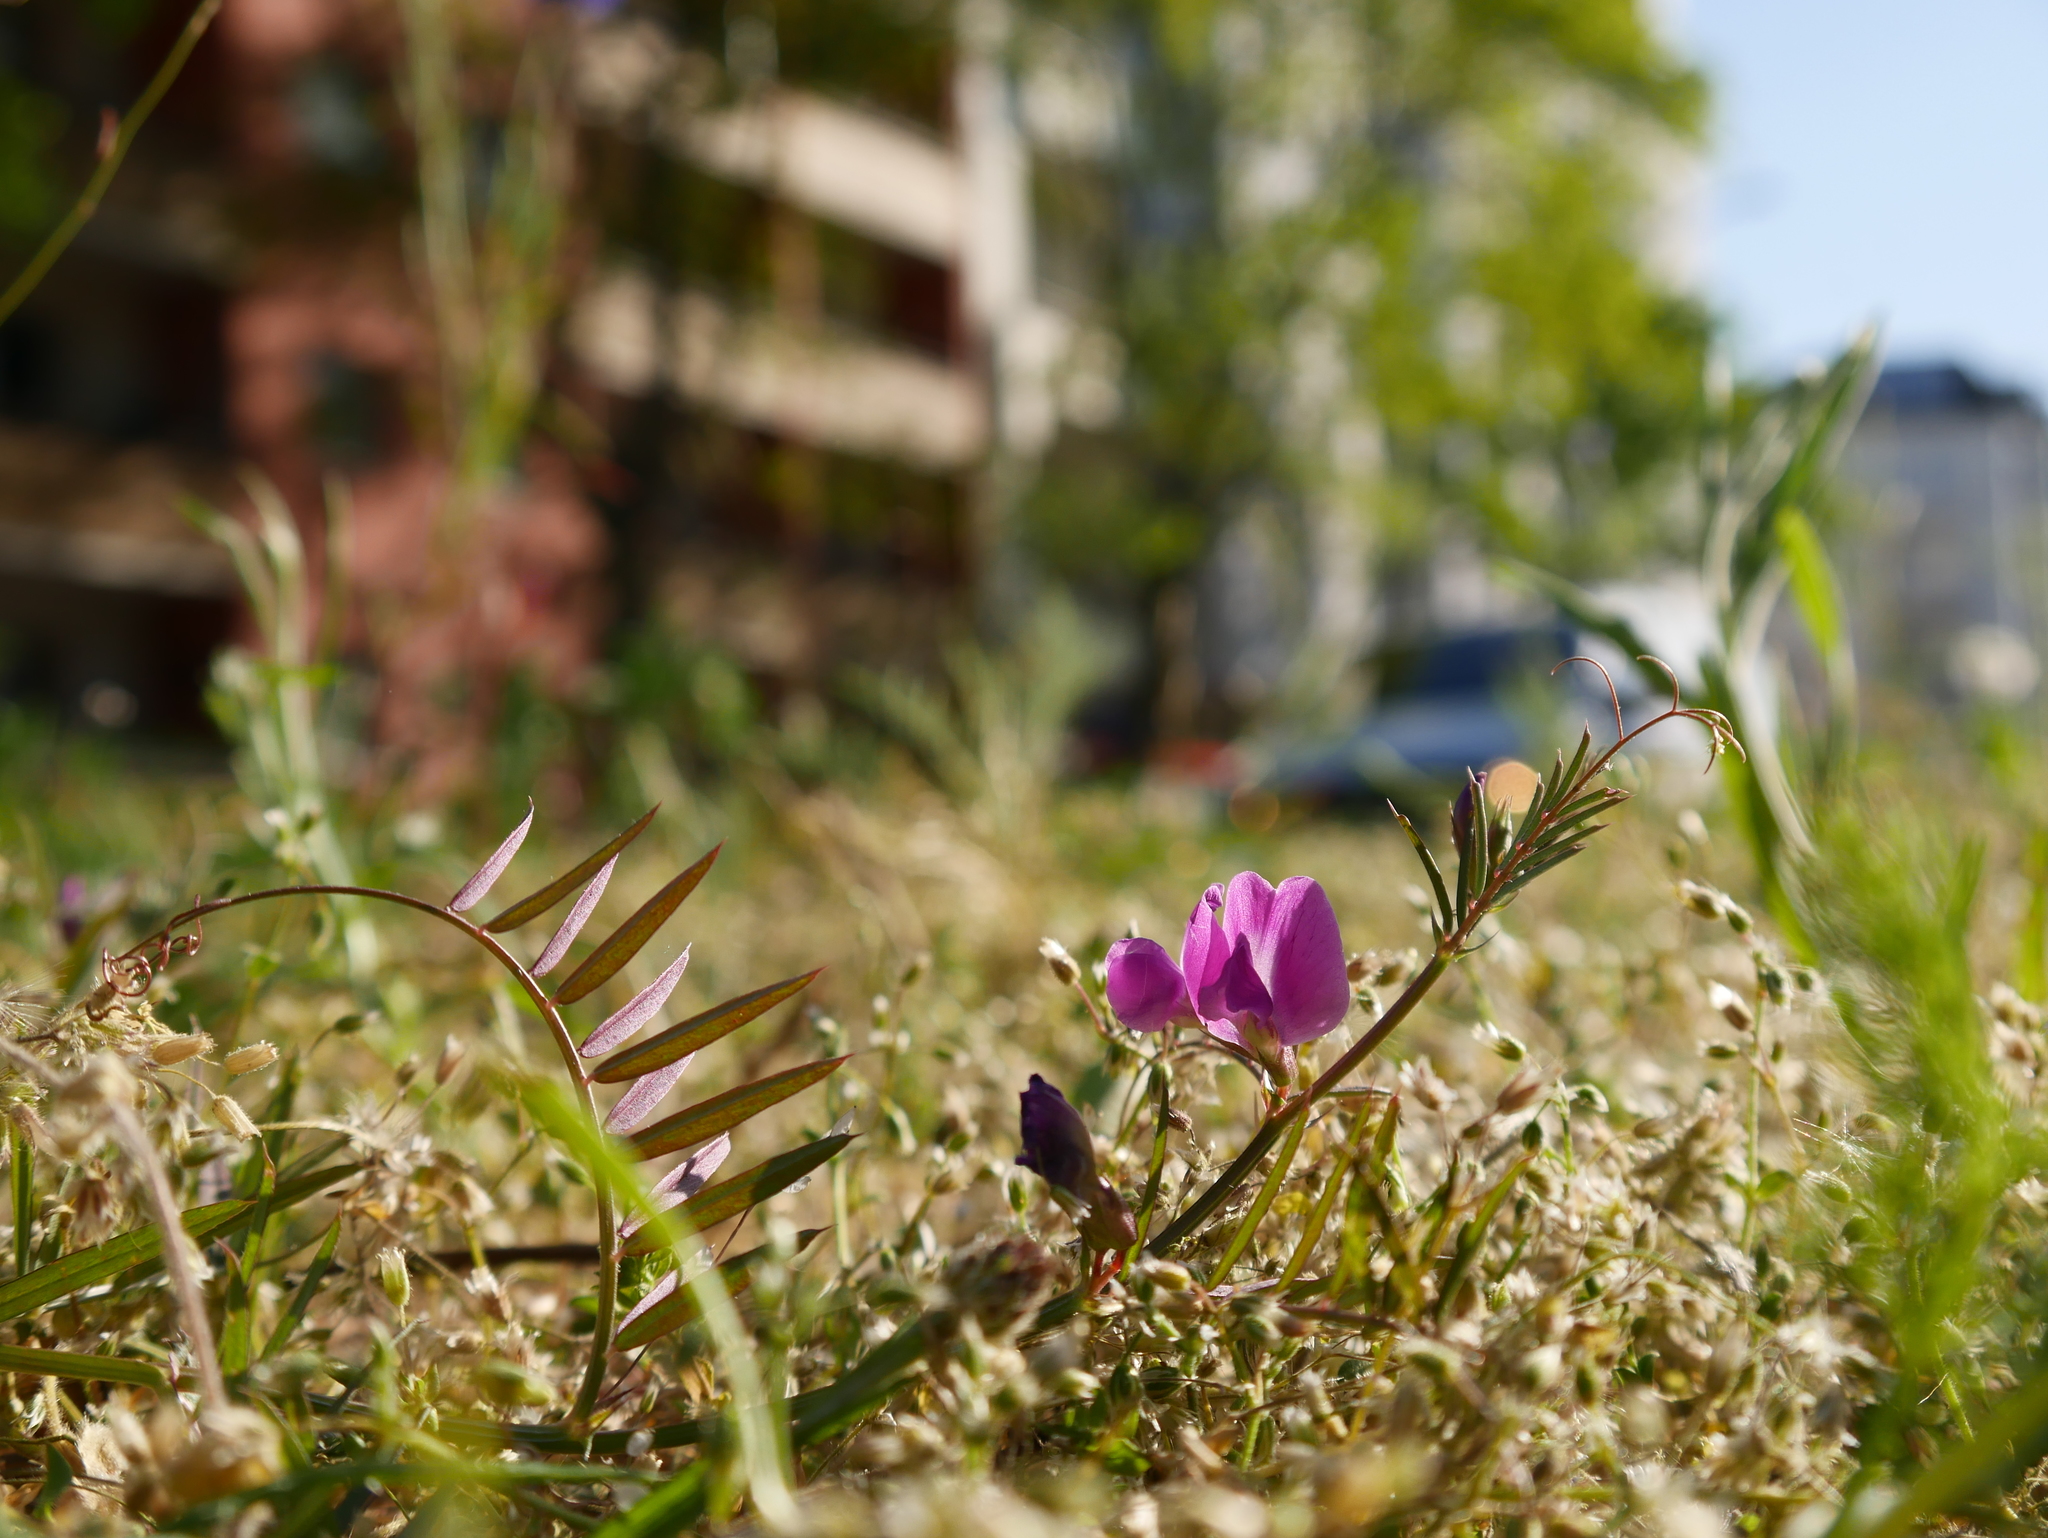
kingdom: Plantae
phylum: Tracheophyta
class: Magnoliopsida
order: Fabales
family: Fabaceae
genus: Vicia
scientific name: Vicia sativa
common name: Garden vetch
